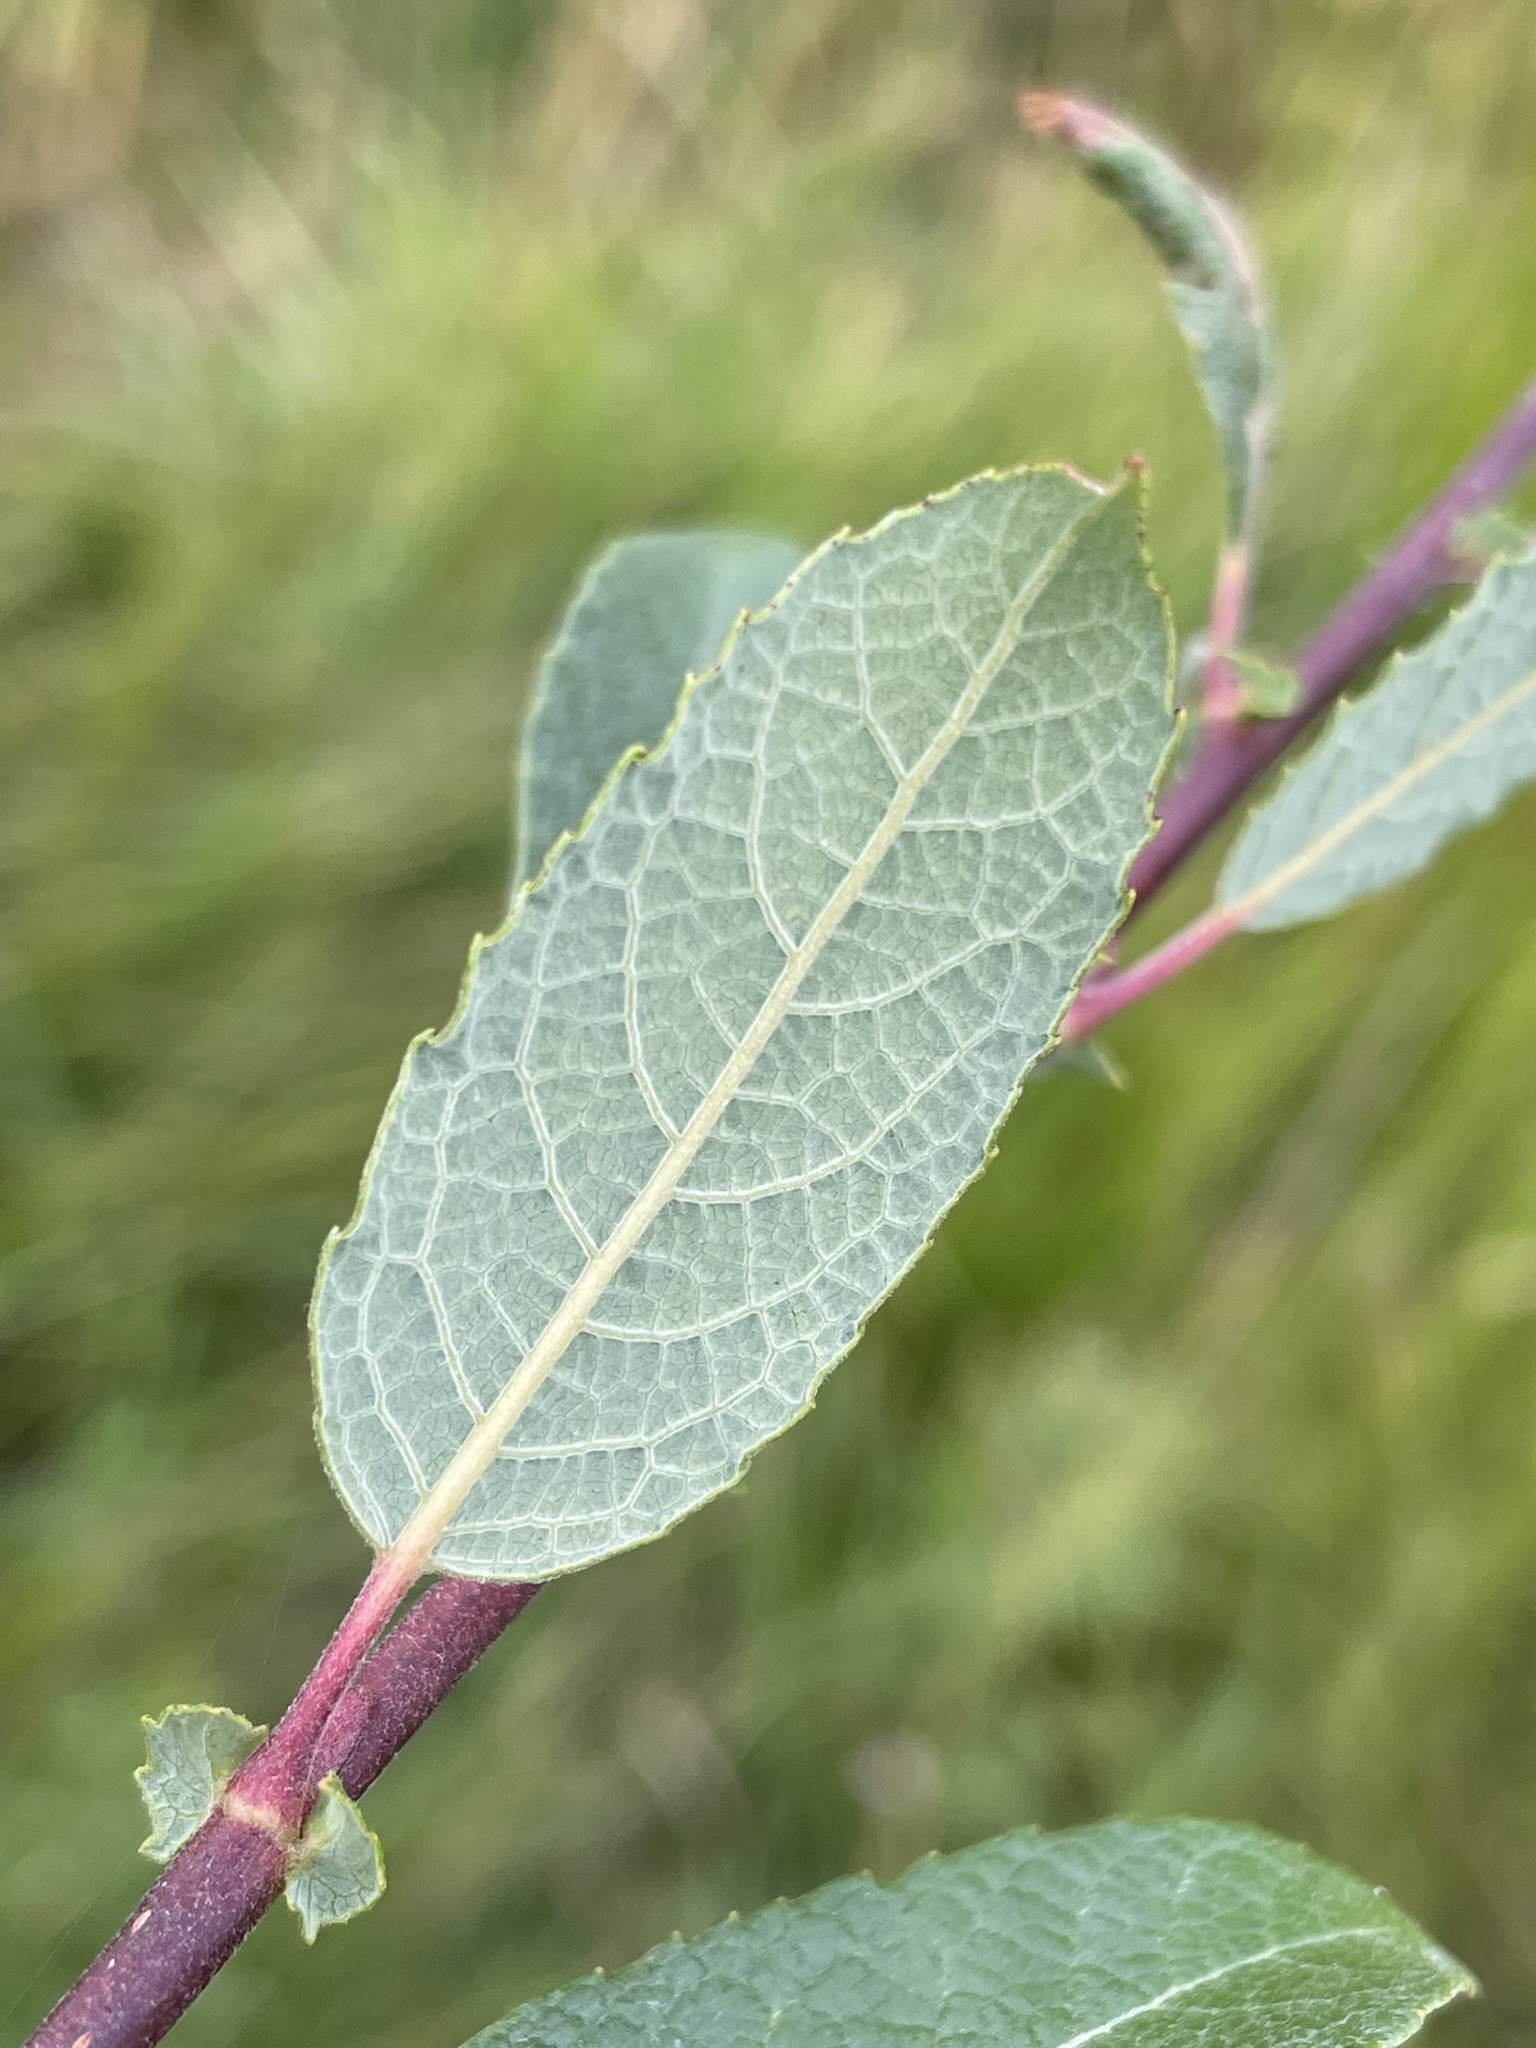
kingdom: Plantae
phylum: Tracheophyta
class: Magnoliopsida
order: Malpighiales
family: Salicaceae
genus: Salix
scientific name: Salix bebbiana
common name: Bebb's willow
